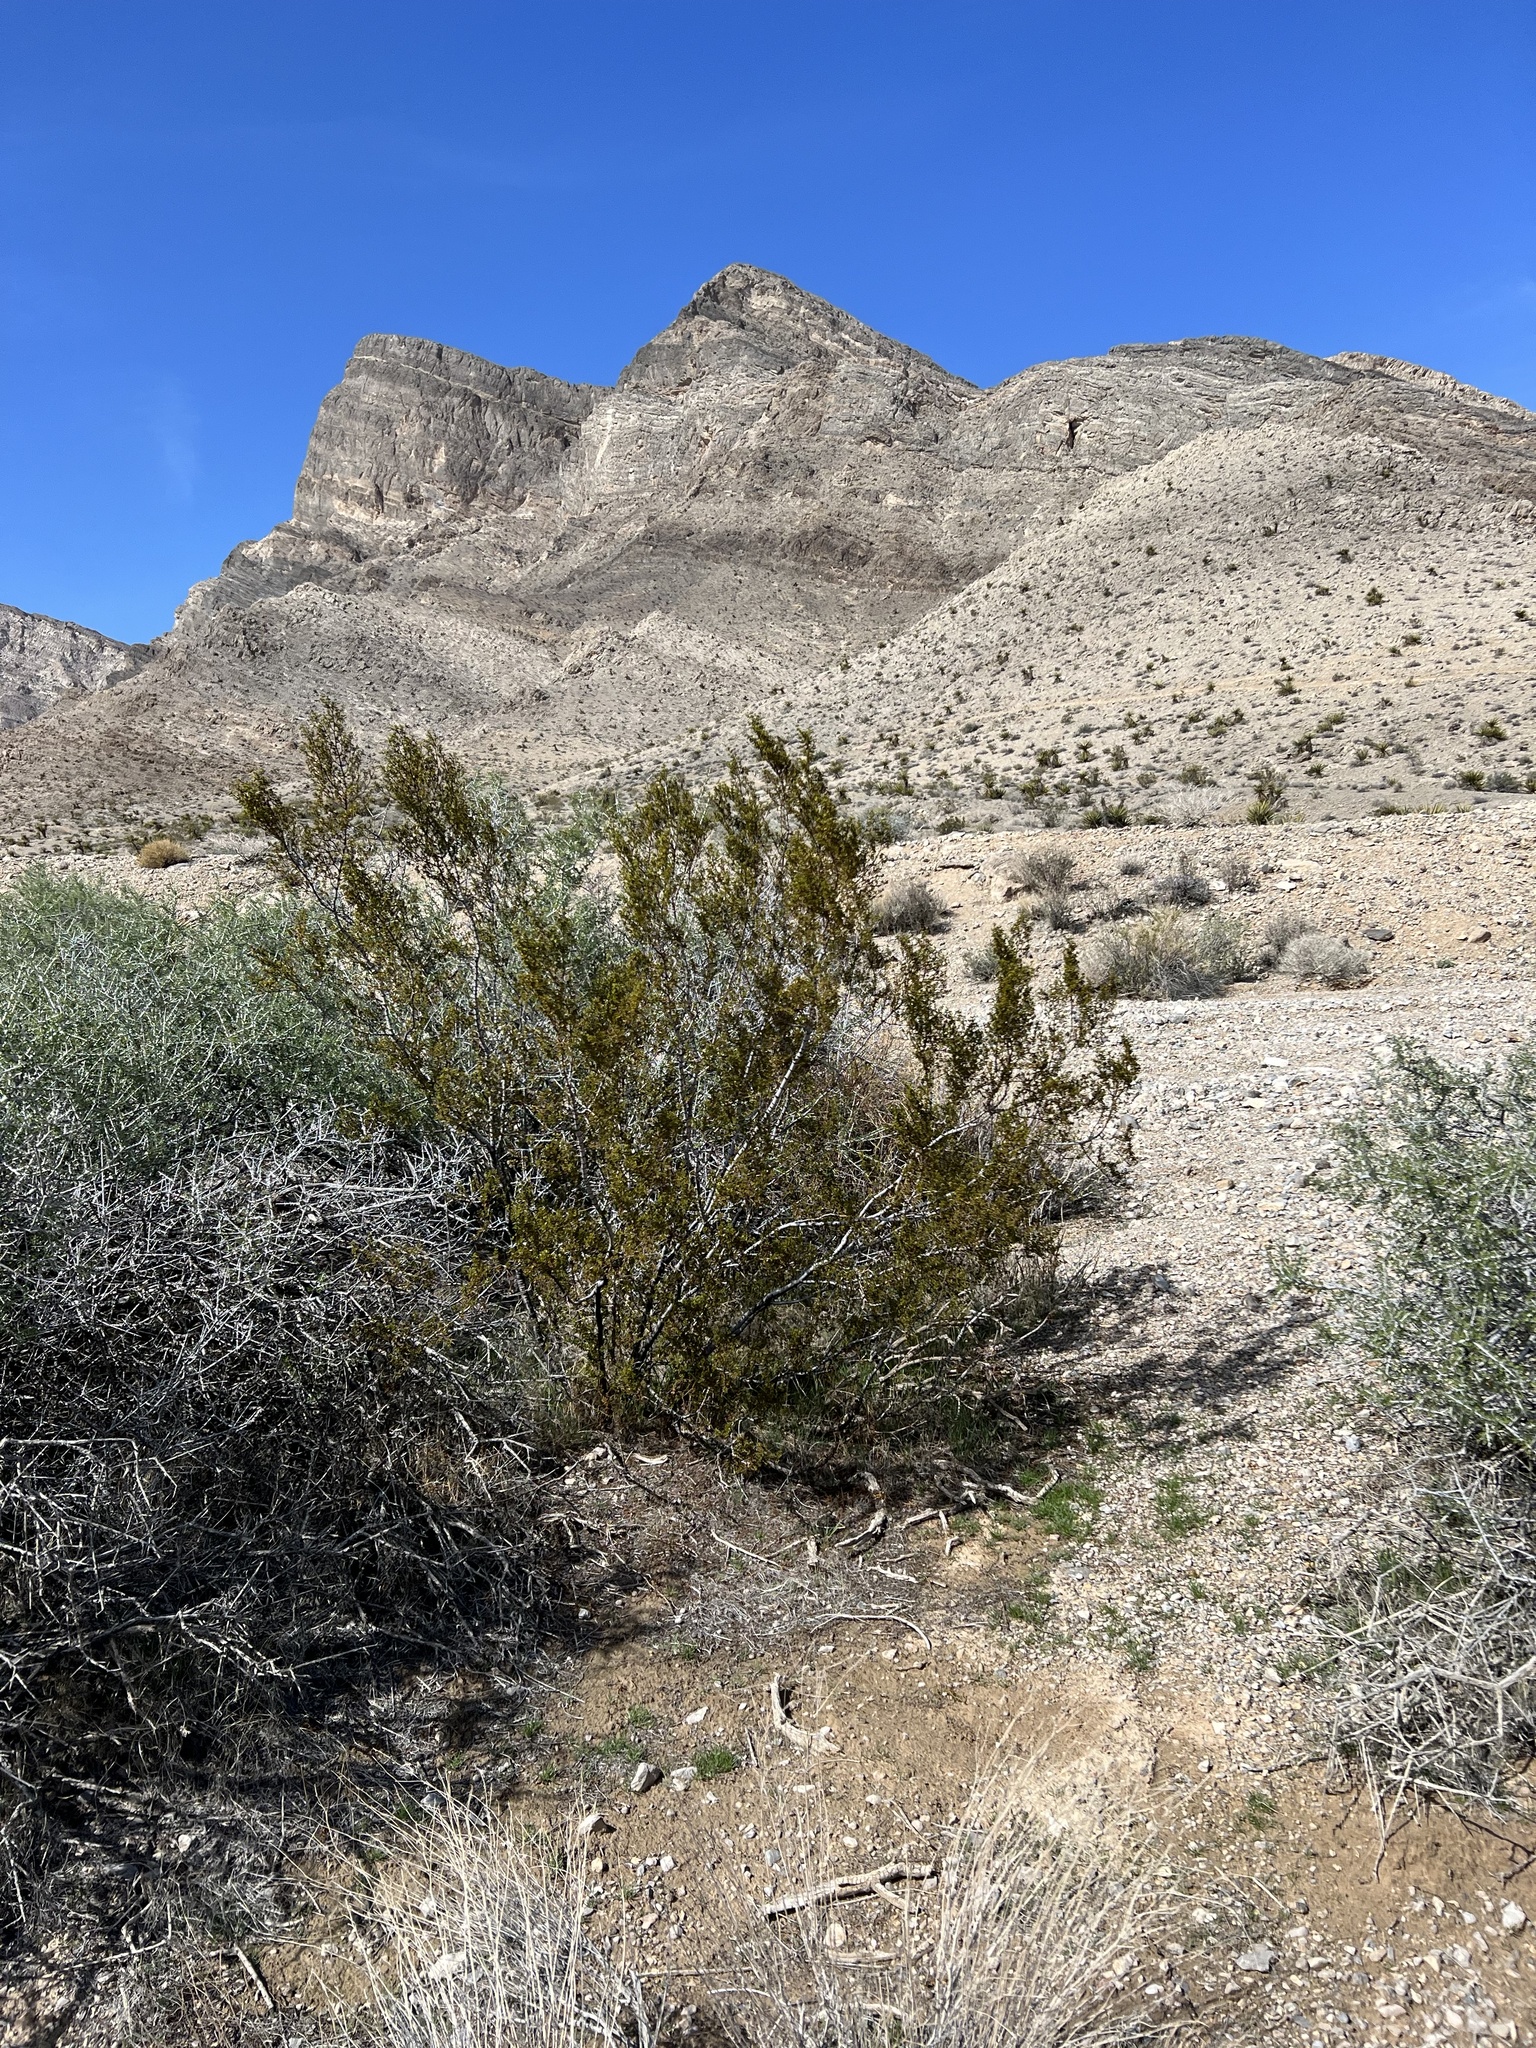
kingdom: Plantae
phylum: Tracheophyta
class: Magnoliopsida
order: Zygophyllales
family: Zygophyllaceae
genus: Larrea
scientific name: Larrea tridentata
